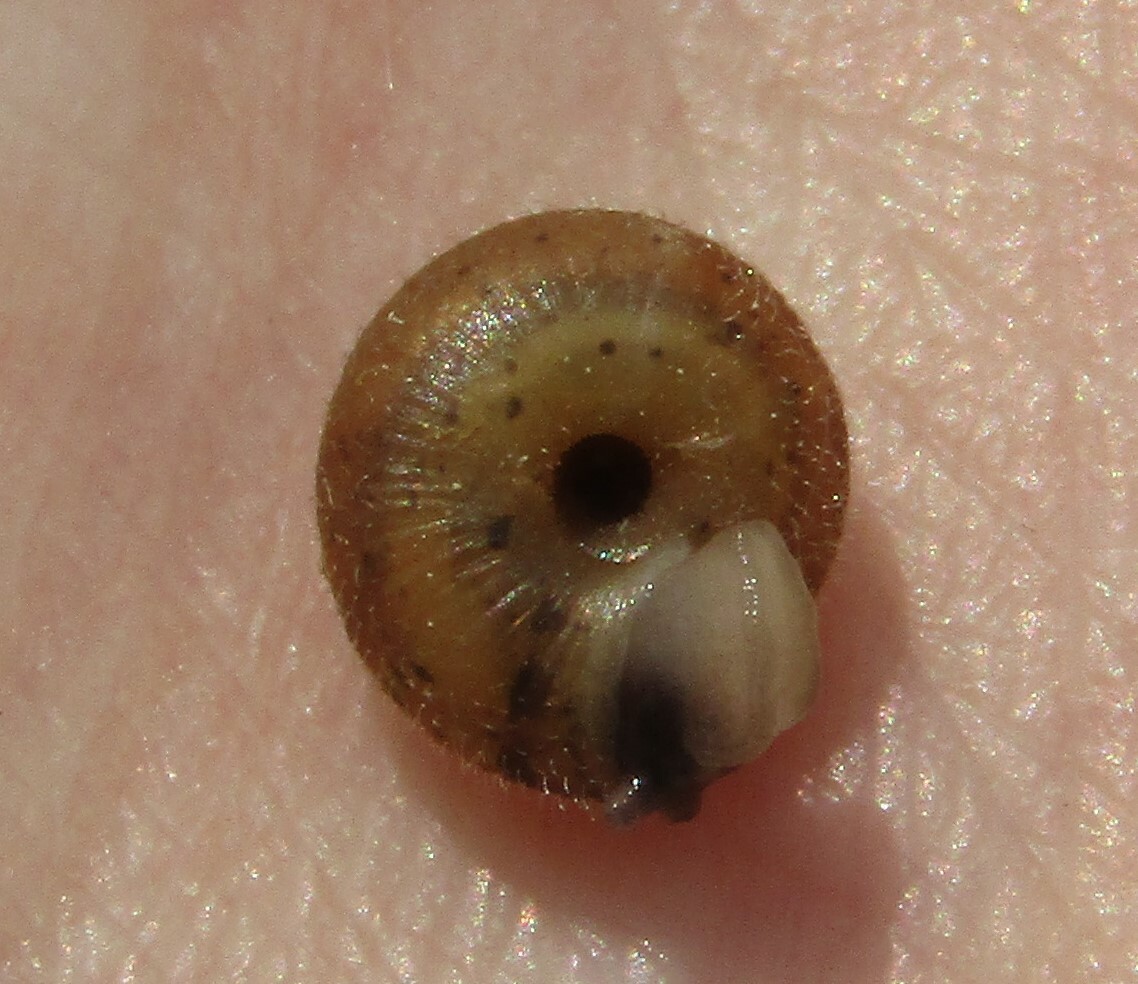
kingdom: Animalia
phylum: Mollusca
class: Gastropoda
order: Stylommatophora
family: Hygromiidae
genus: Trochulus
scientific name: Trochulus hispidus
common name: Hairy snail
